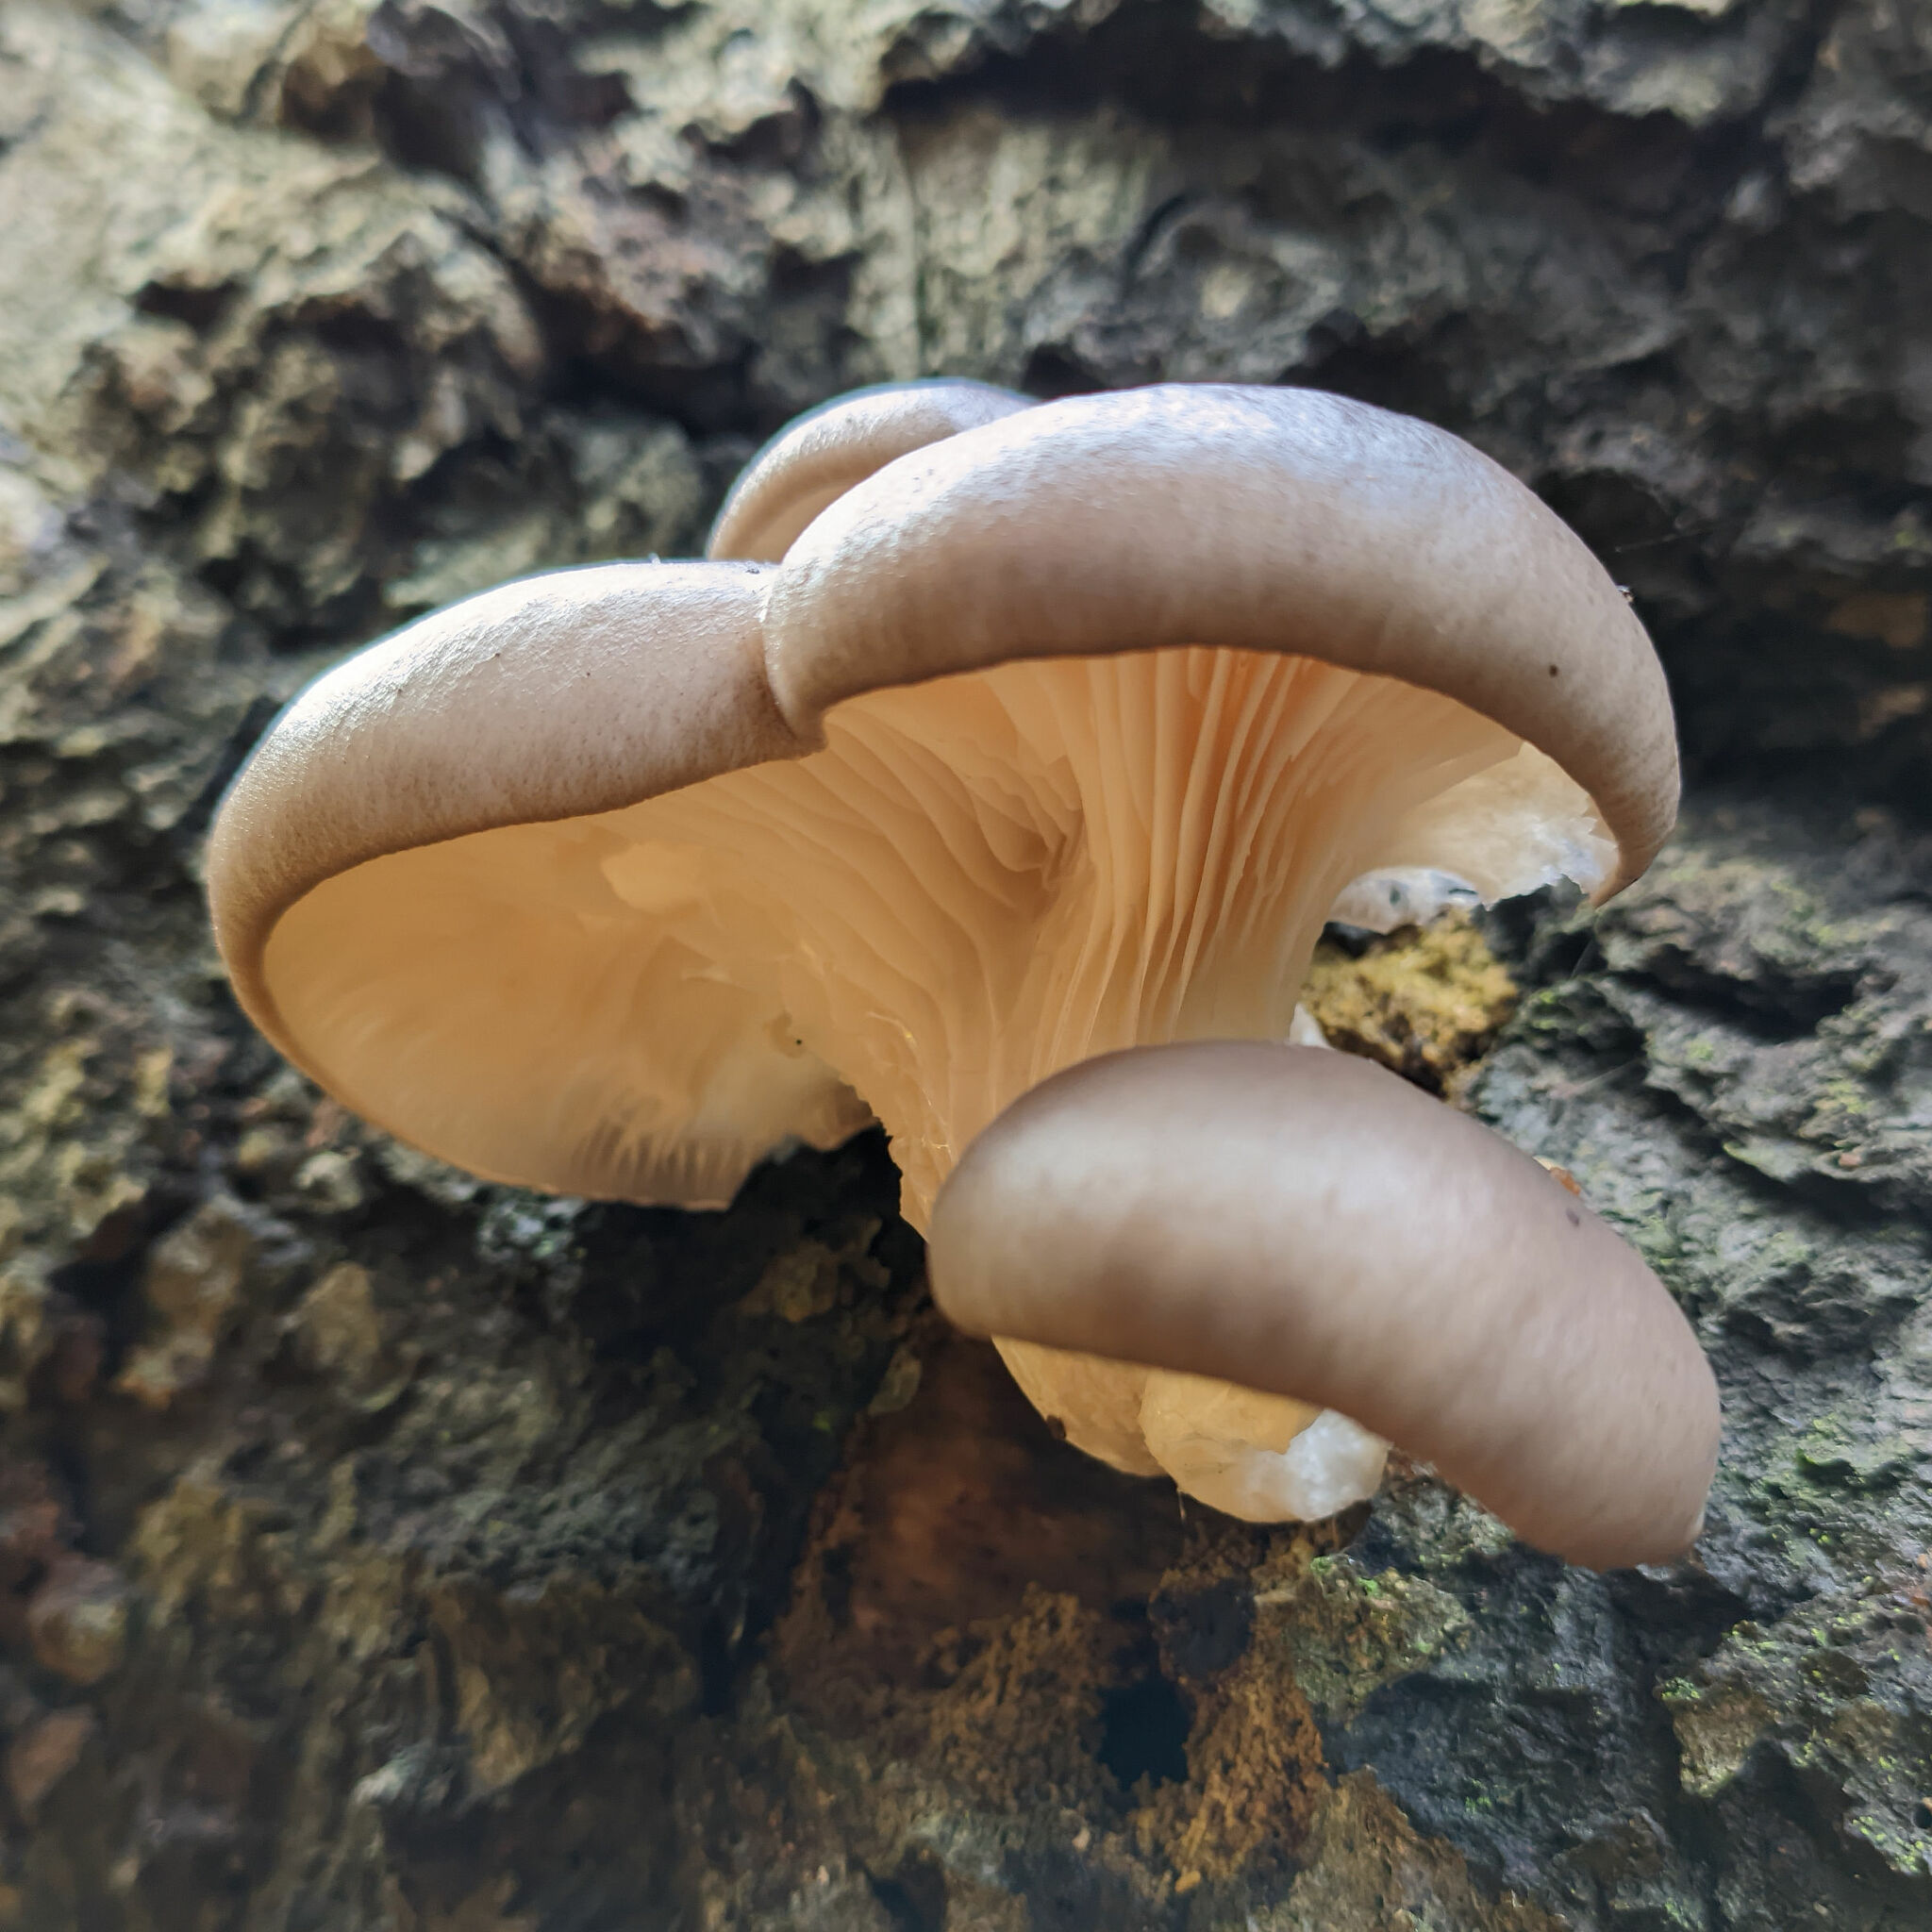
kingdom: Fungi
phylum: Basidiomycota
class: Agaricomycetes
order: Agaricales
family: Pleurotaceae
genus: Pleurotus
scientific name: Pleurotus ostreatus
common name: Oyster mushroom
